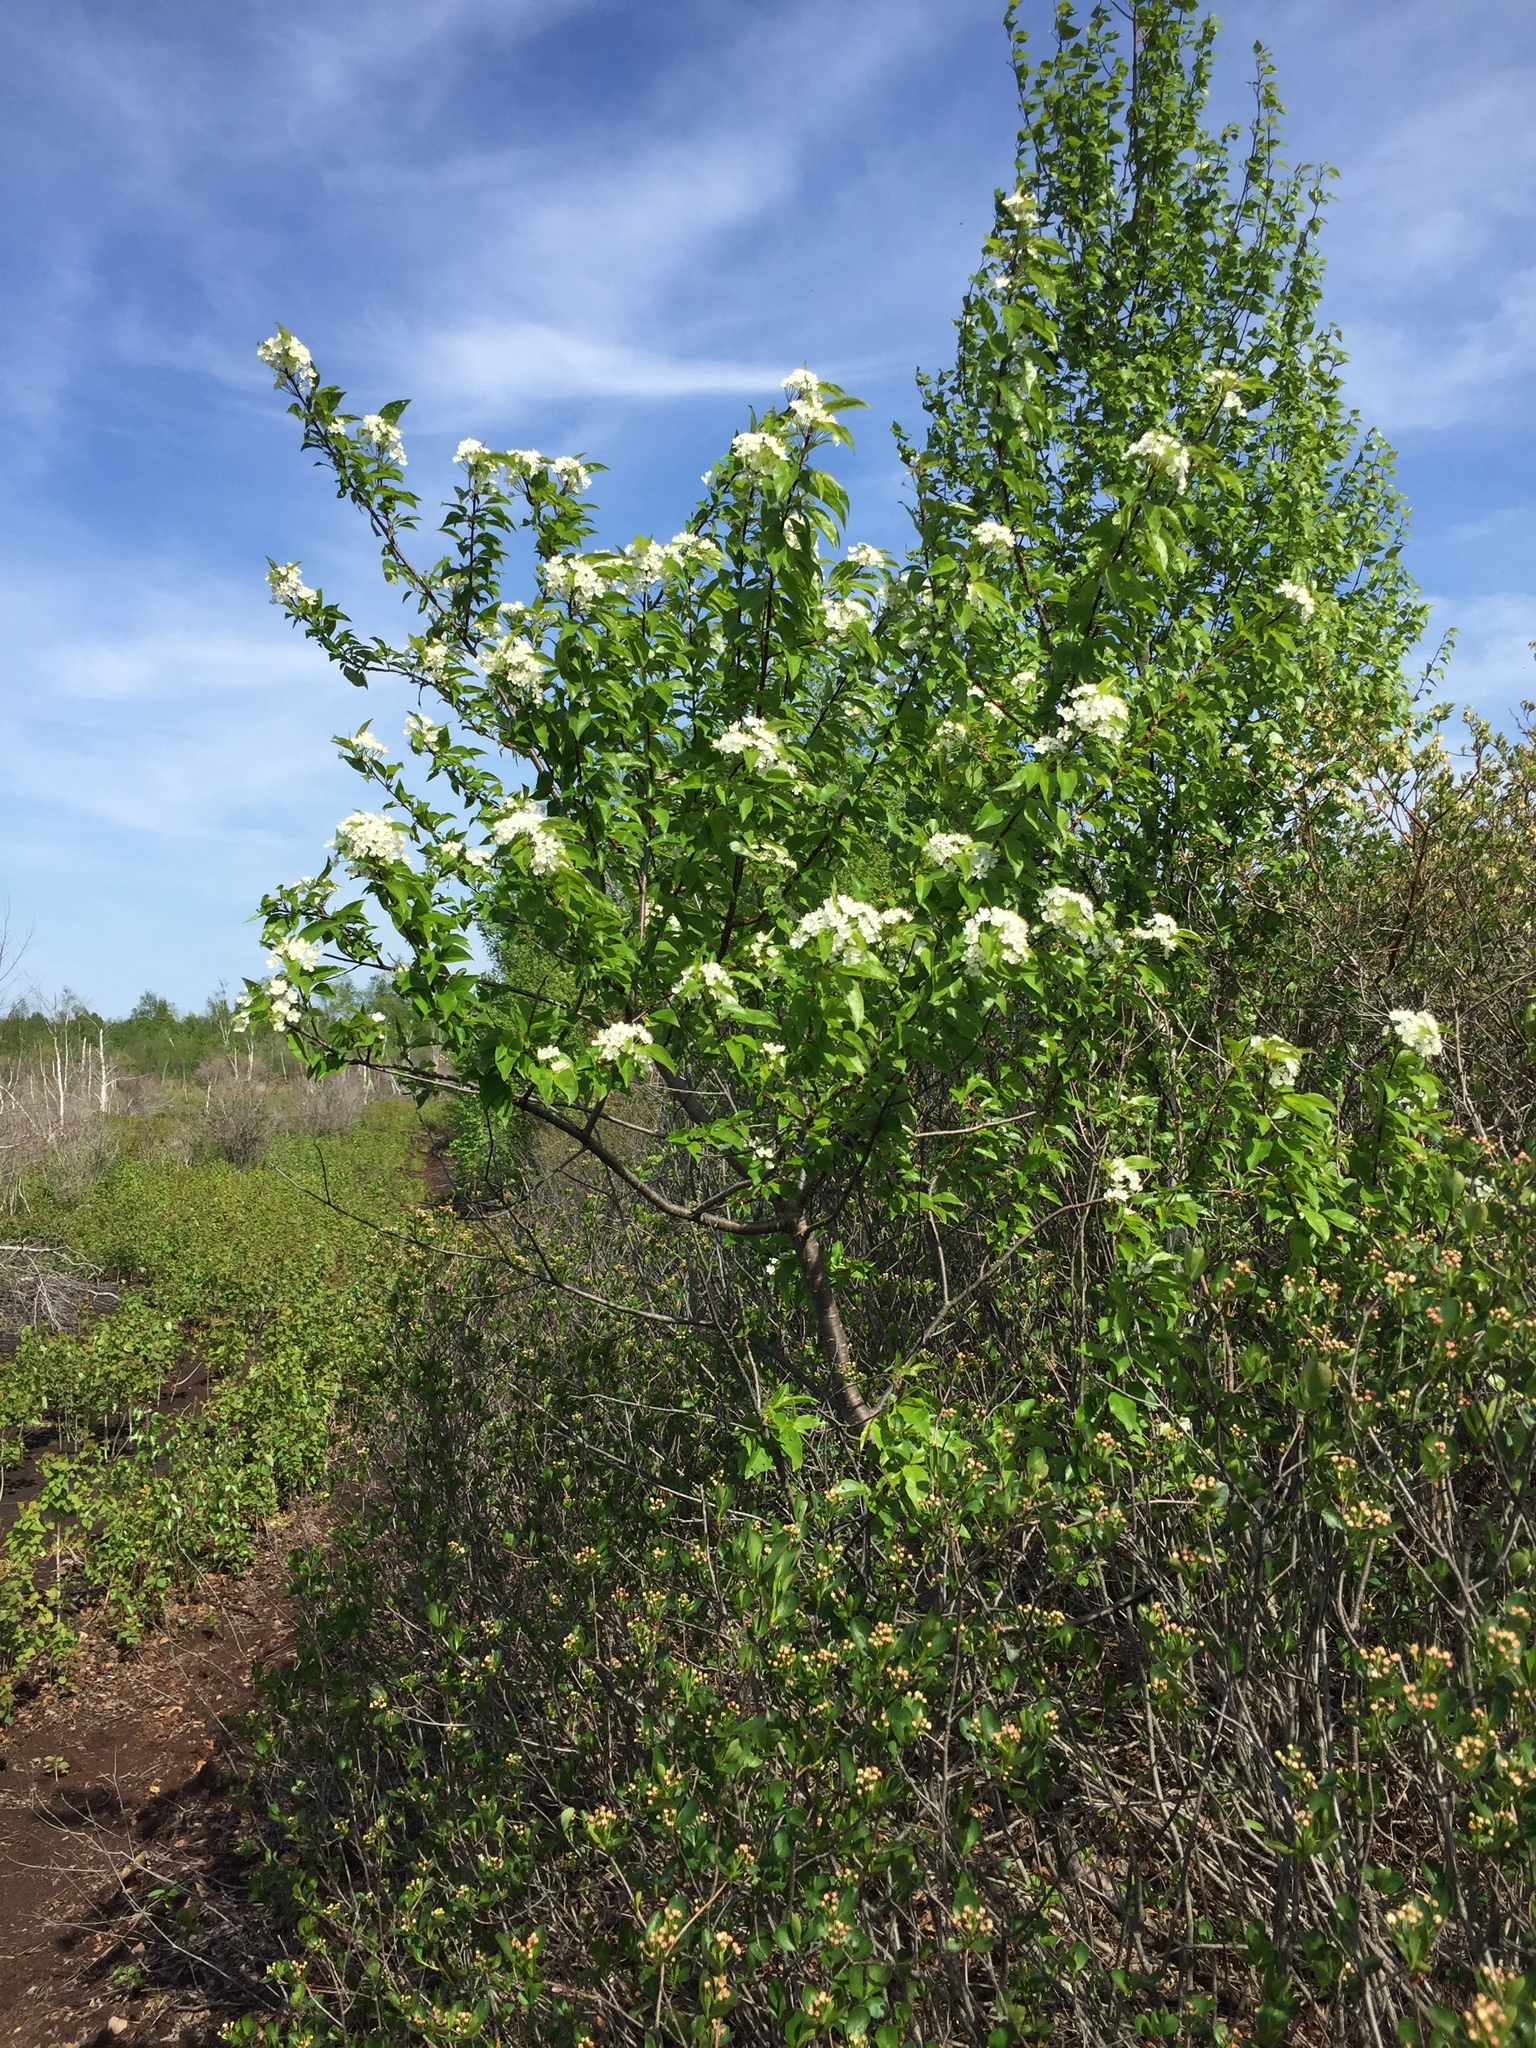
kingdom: Plantae
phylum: Tracheophyta
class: Magnoliopsida
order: Rosales
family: Rosaceae
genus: Prunus
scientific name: Prunus pensylvanica
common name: Pin cherry
